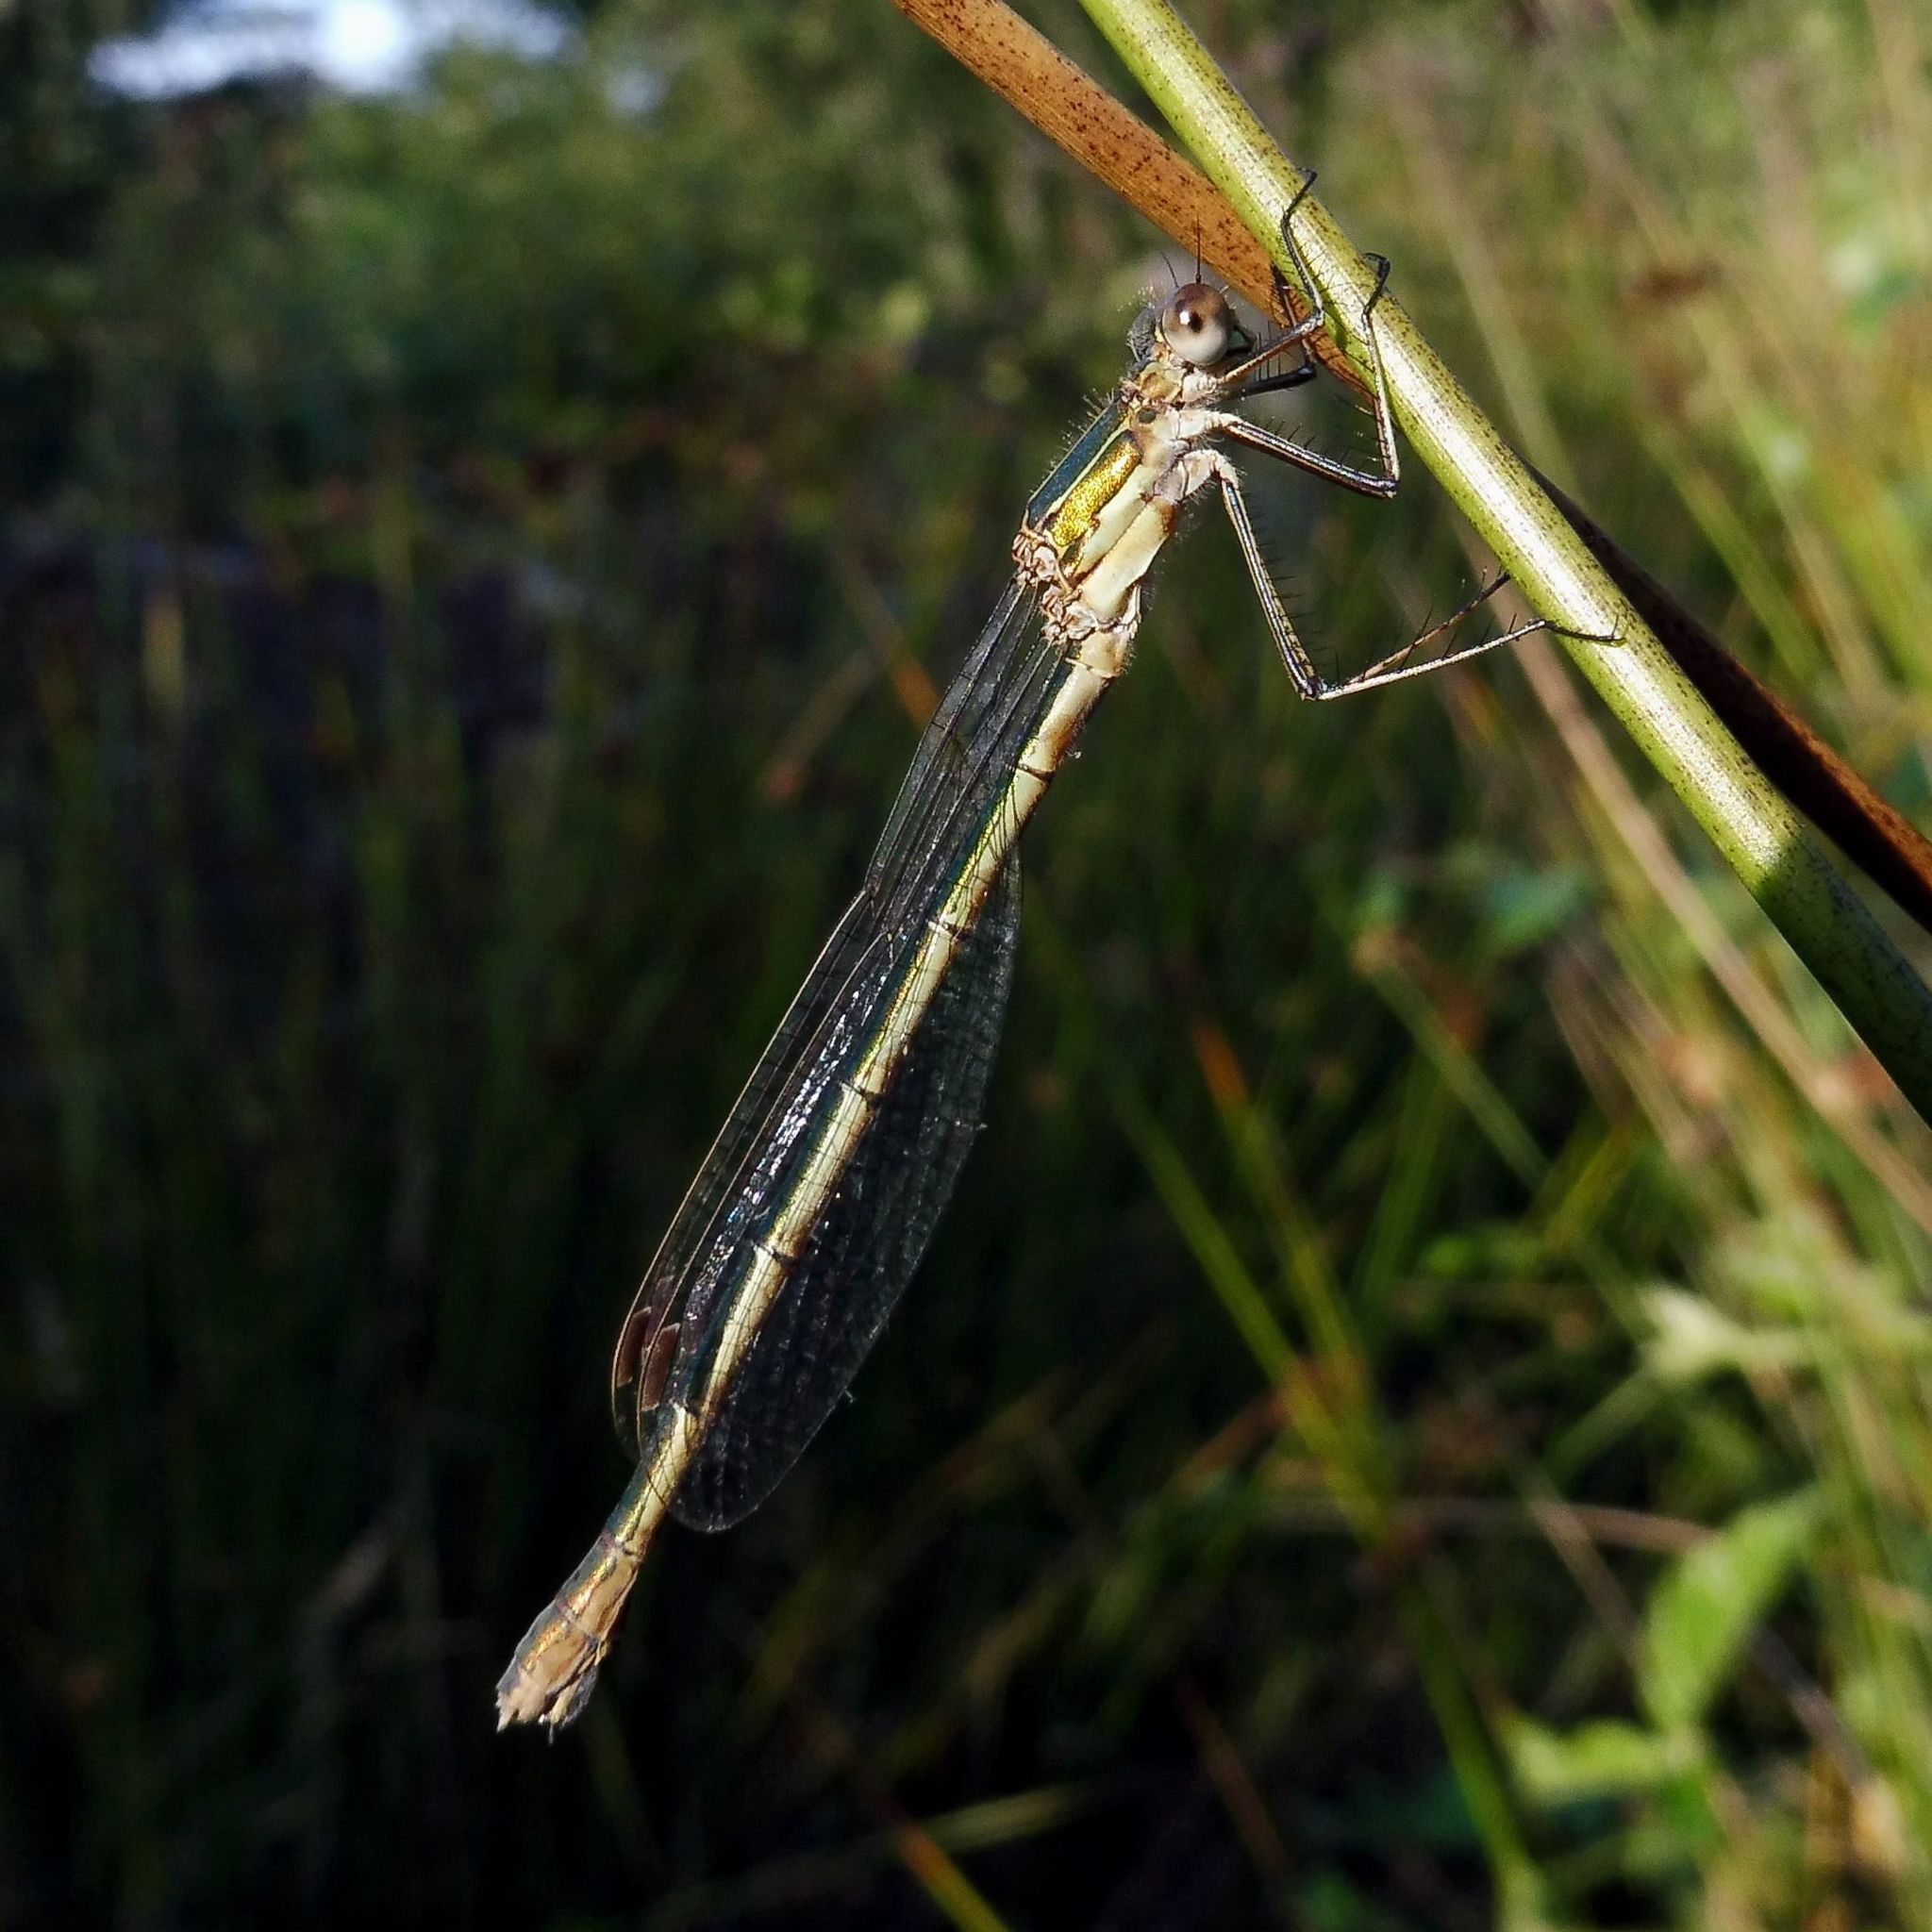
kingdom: Animalia
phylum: Arthropoda
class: Insecta
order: Odonata
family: Lestidae
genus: Lestes
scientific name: Lestes sponsa
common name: Common spreadwing
